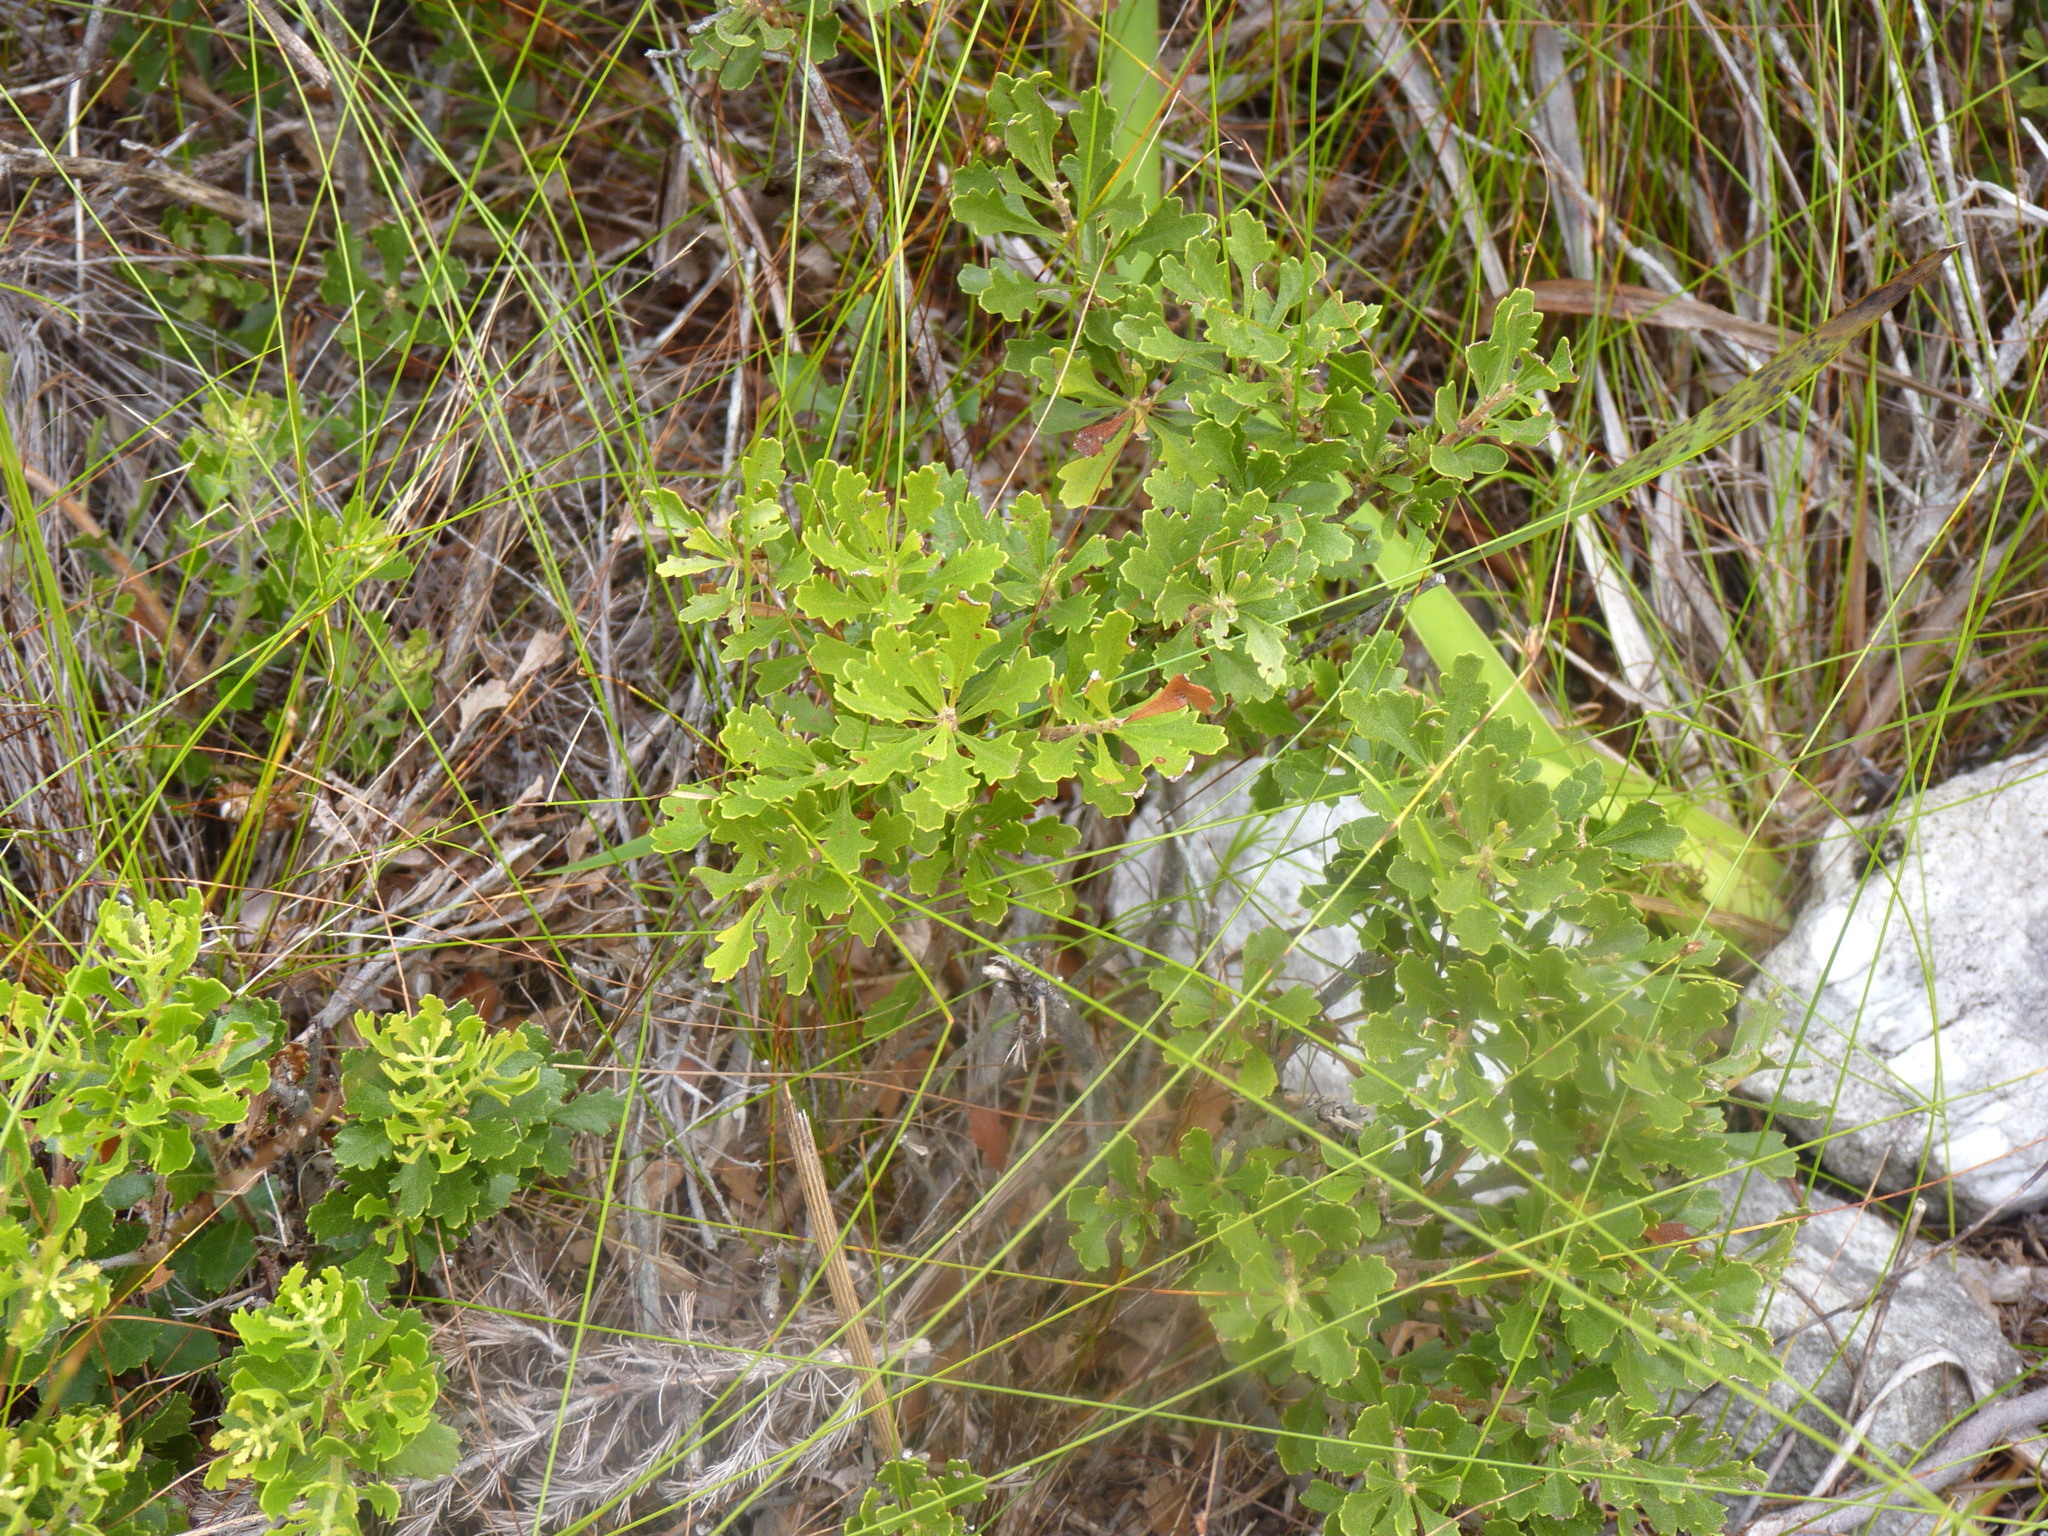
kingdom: Plantae
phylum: Tracheophyta
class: Magnoliopsida
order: Fagales
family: Myricaceae
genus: Morella
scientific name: Morella quercifolia
